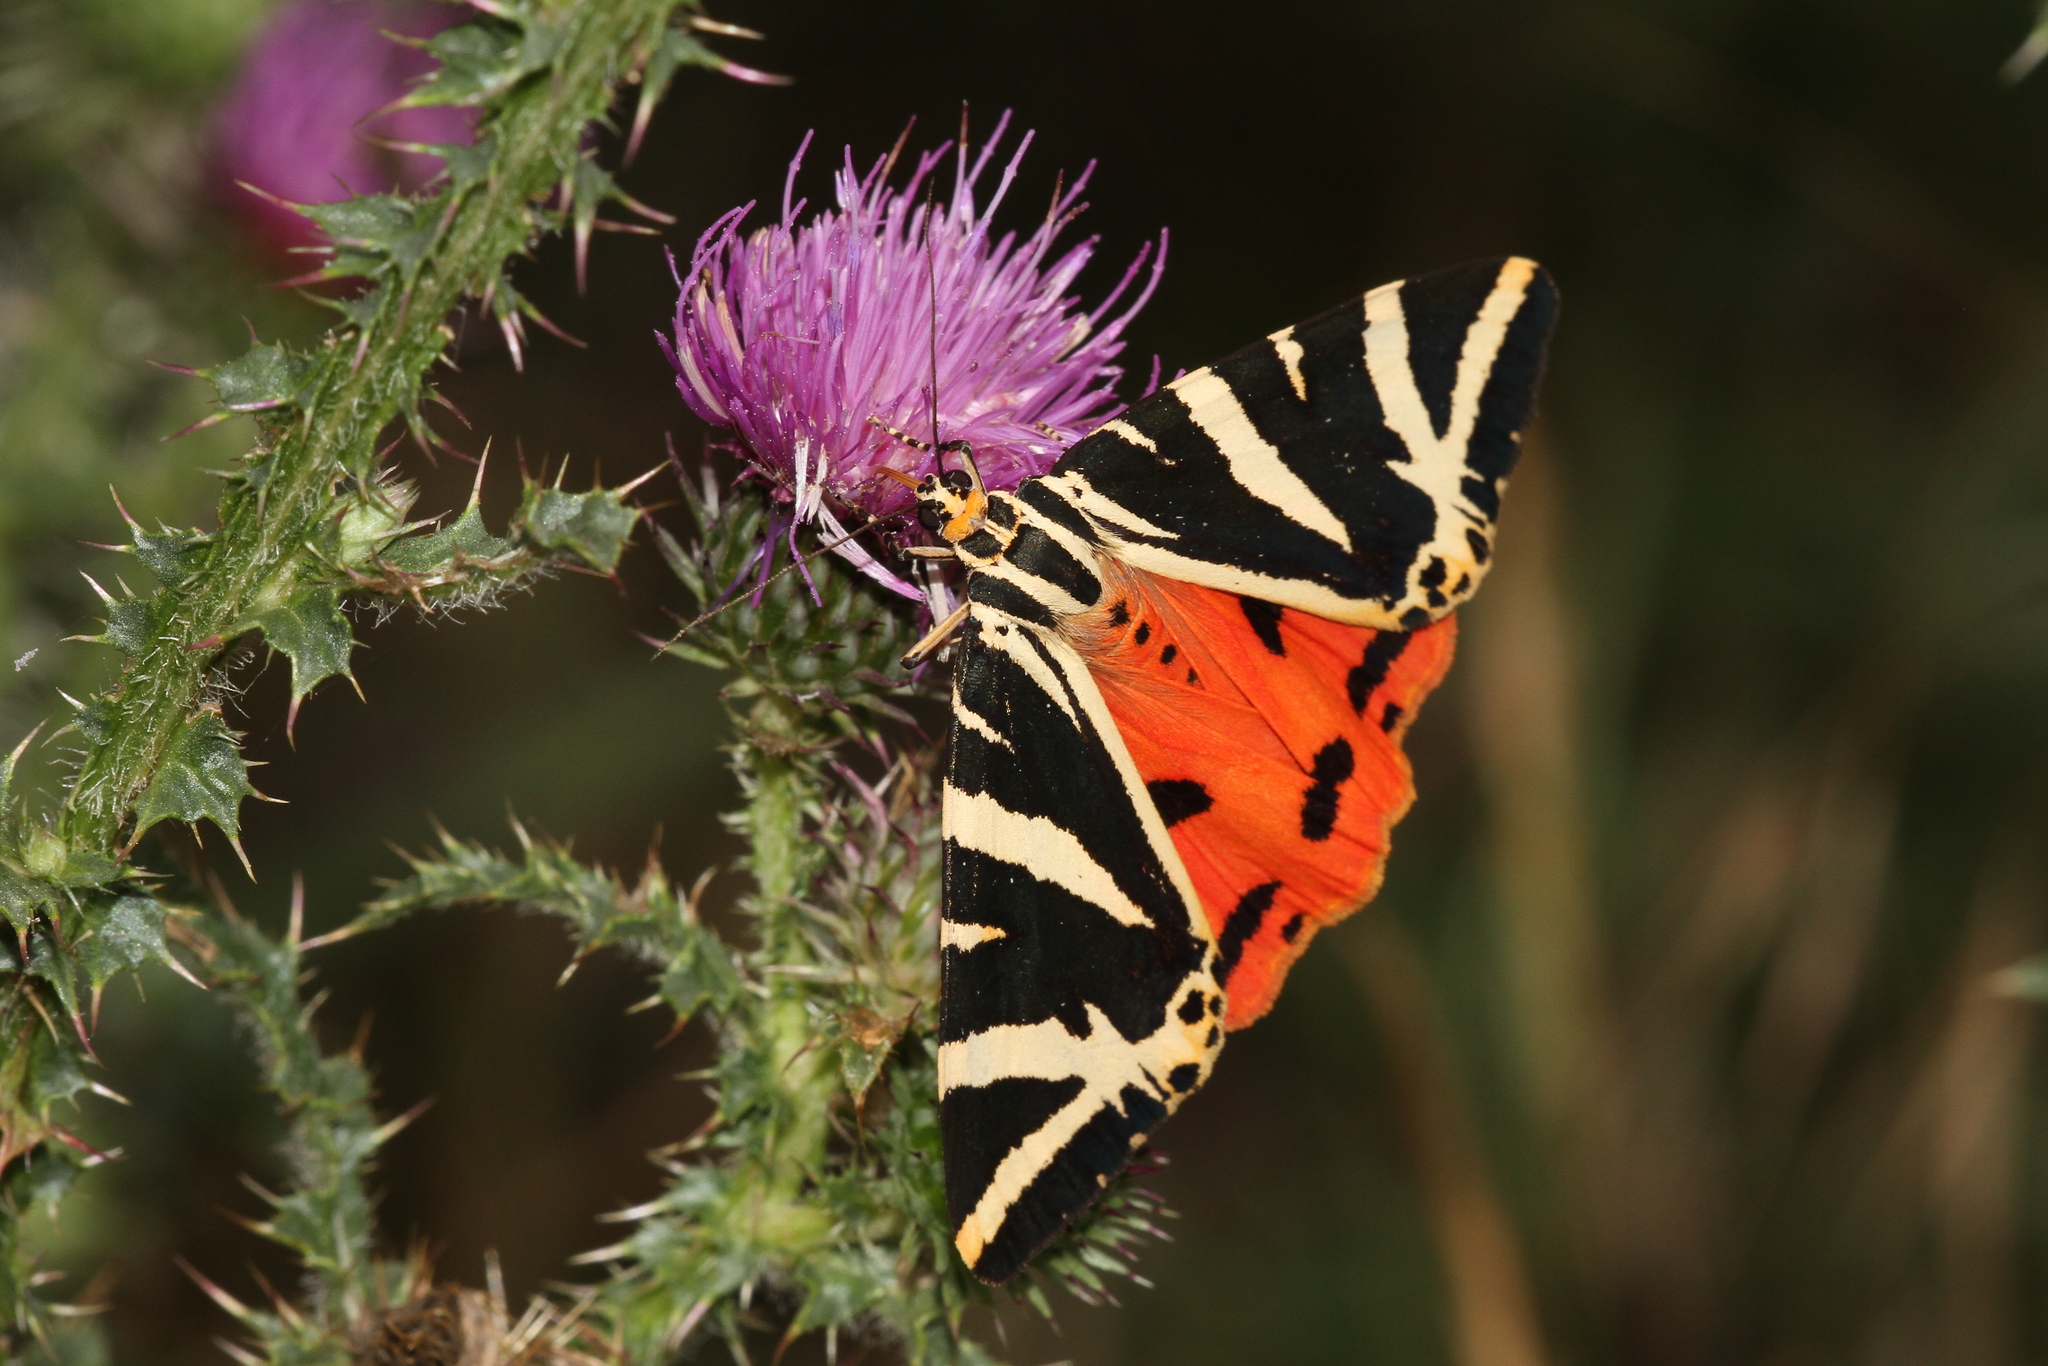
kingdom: Animalia
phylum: Arthropoda
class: Insecta
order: Lepidoptera
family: Erebidae
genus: Euplagia
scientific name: Euplagia quadripunctaria
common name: Jersey tiger
